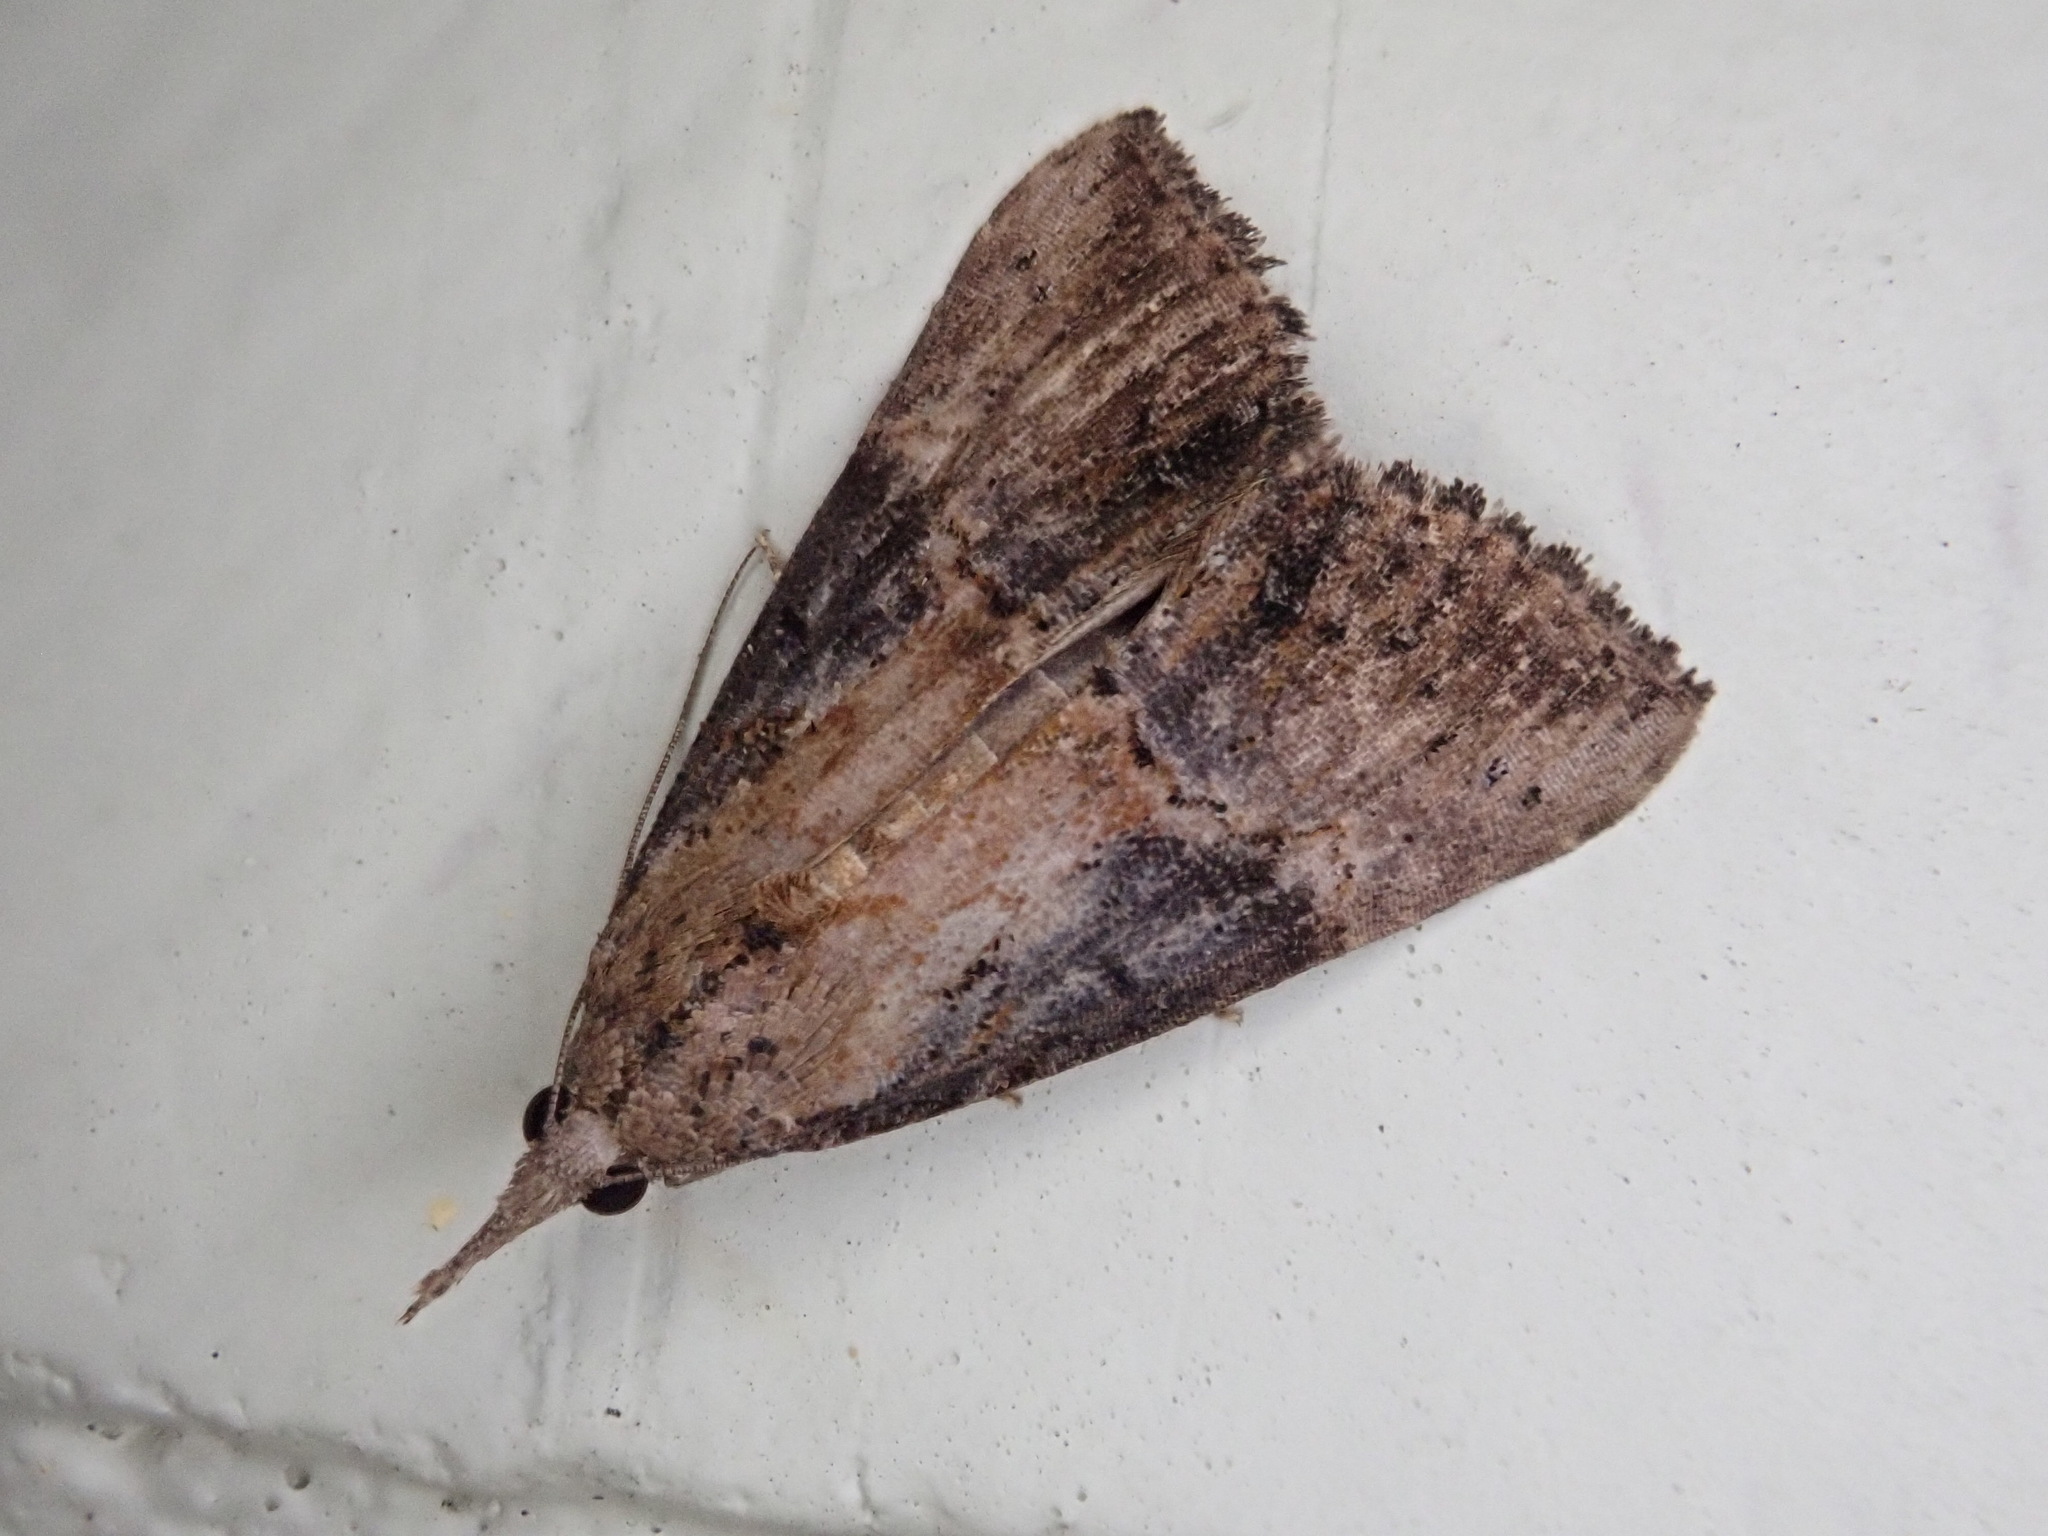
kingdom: Animalia
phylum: Arthropoda
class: Insecta
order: Lepidoptera
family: Erebidae
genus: Hypena
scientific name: Hypena scabra
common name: Green cloverworm
